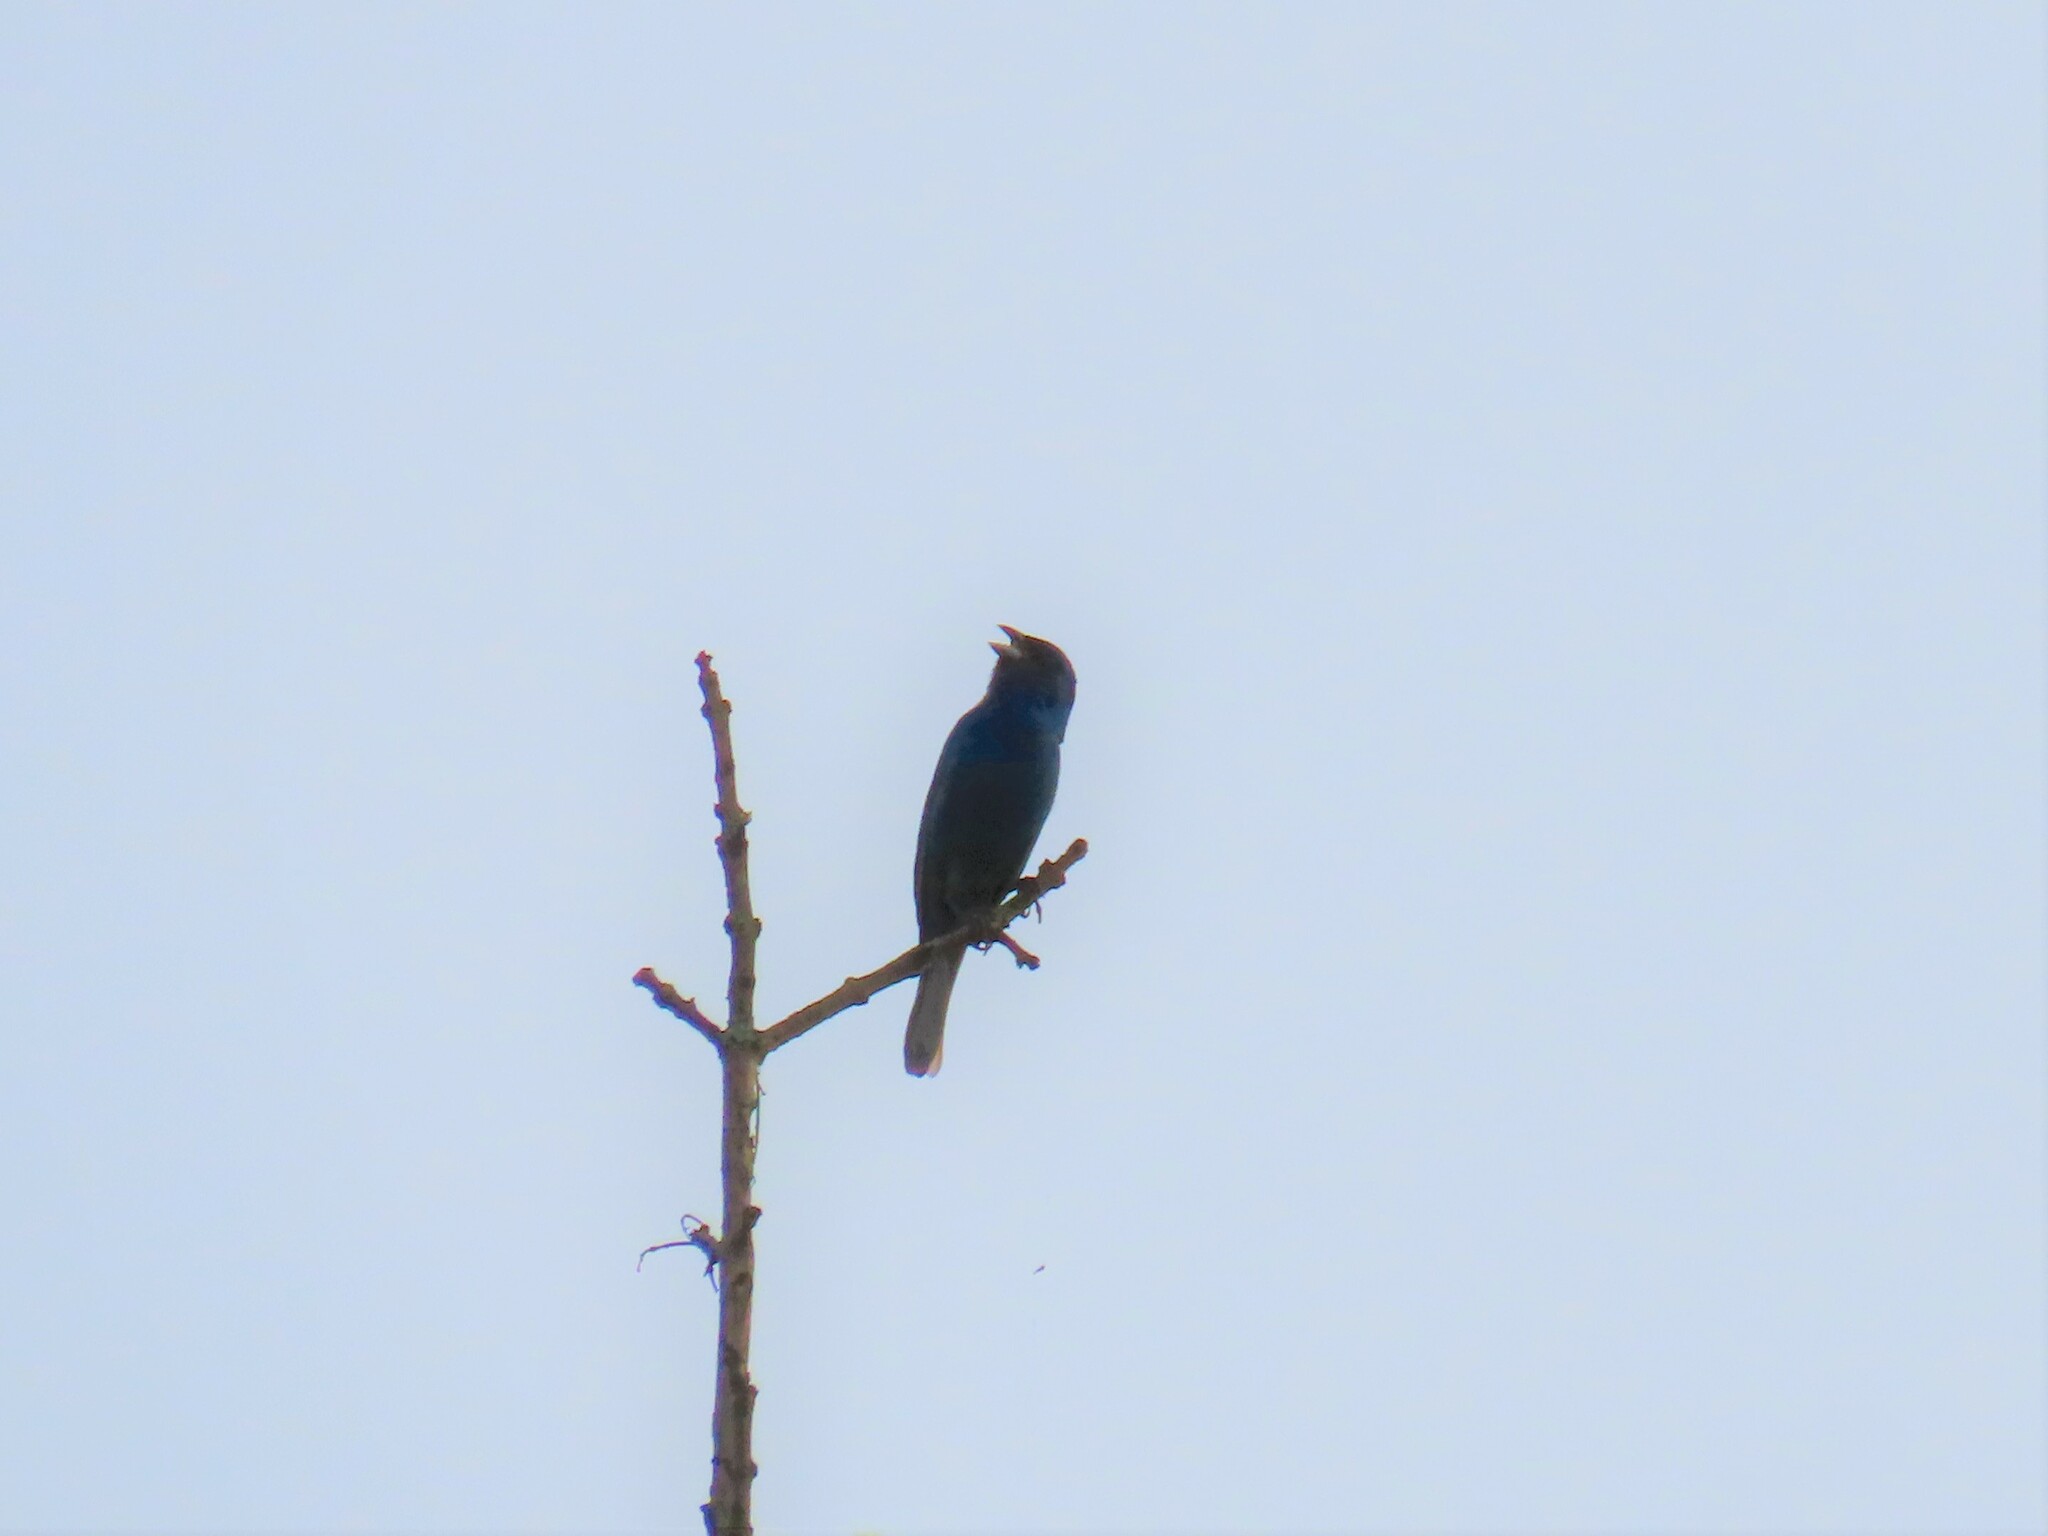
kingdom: Animalia
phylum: Chordata
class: Aves
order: Passeriformes
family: Cardinalidae
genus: Passerina
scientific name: Passerina cyanea
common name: Indigo bunting
